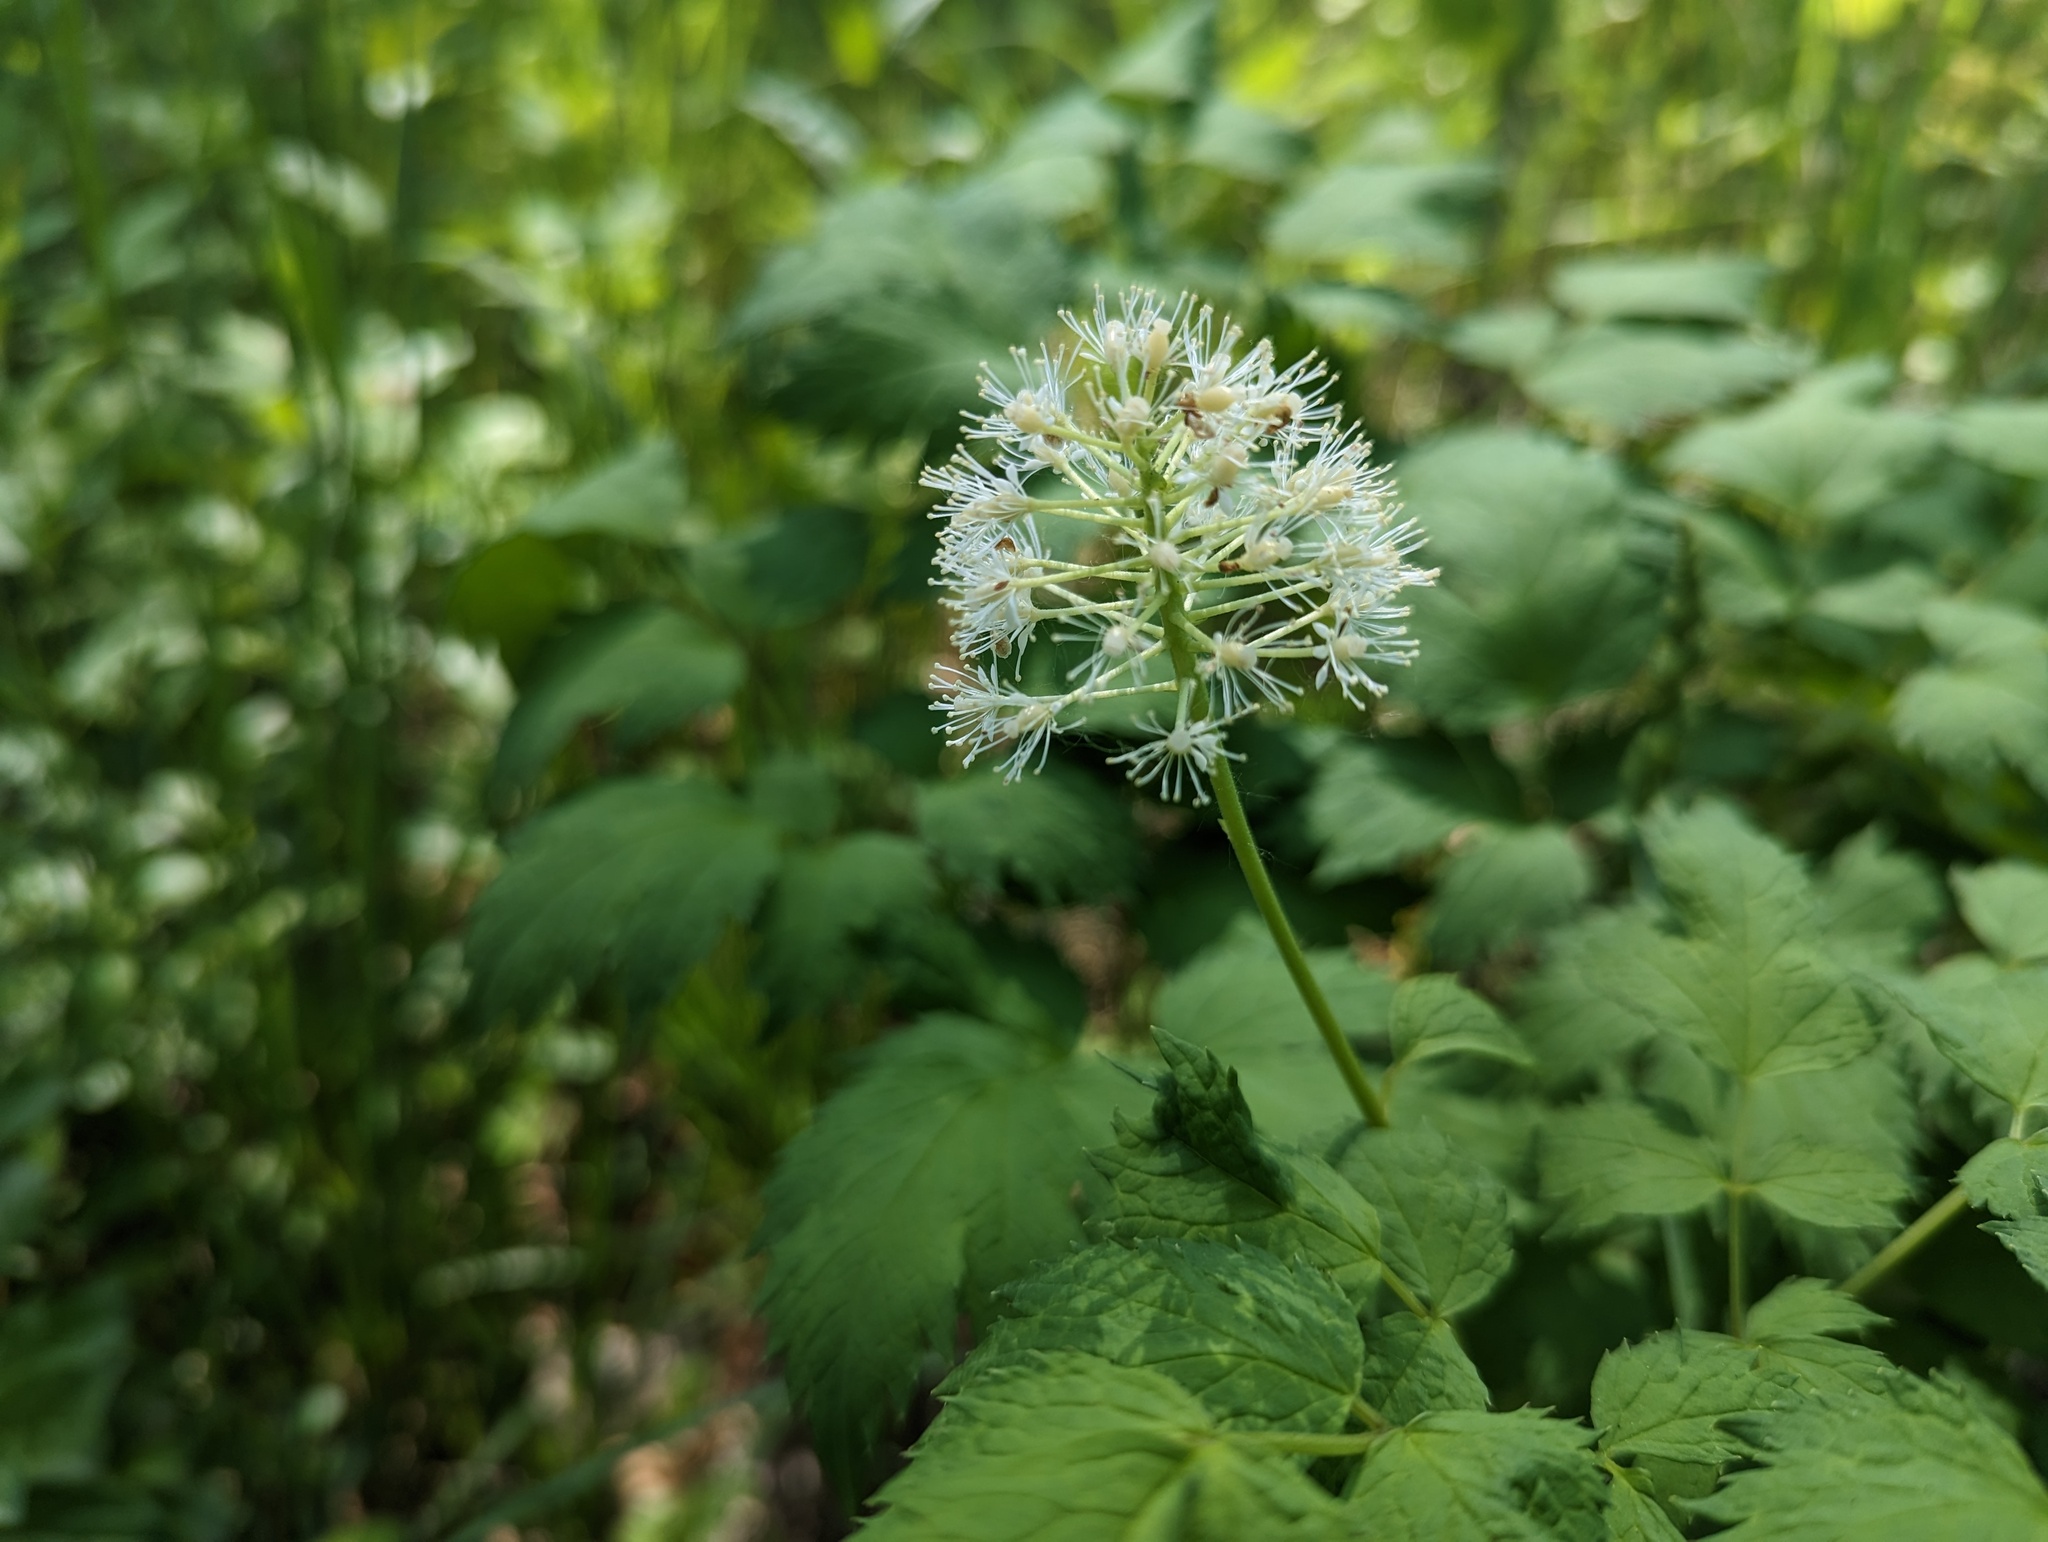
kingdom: Plantae
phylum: Tracheophyta
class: Magnoliopsida
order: Ranunculales
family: Ranunculaceae
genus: Actaea
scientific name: Actaea rubra
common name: Red baneberry
